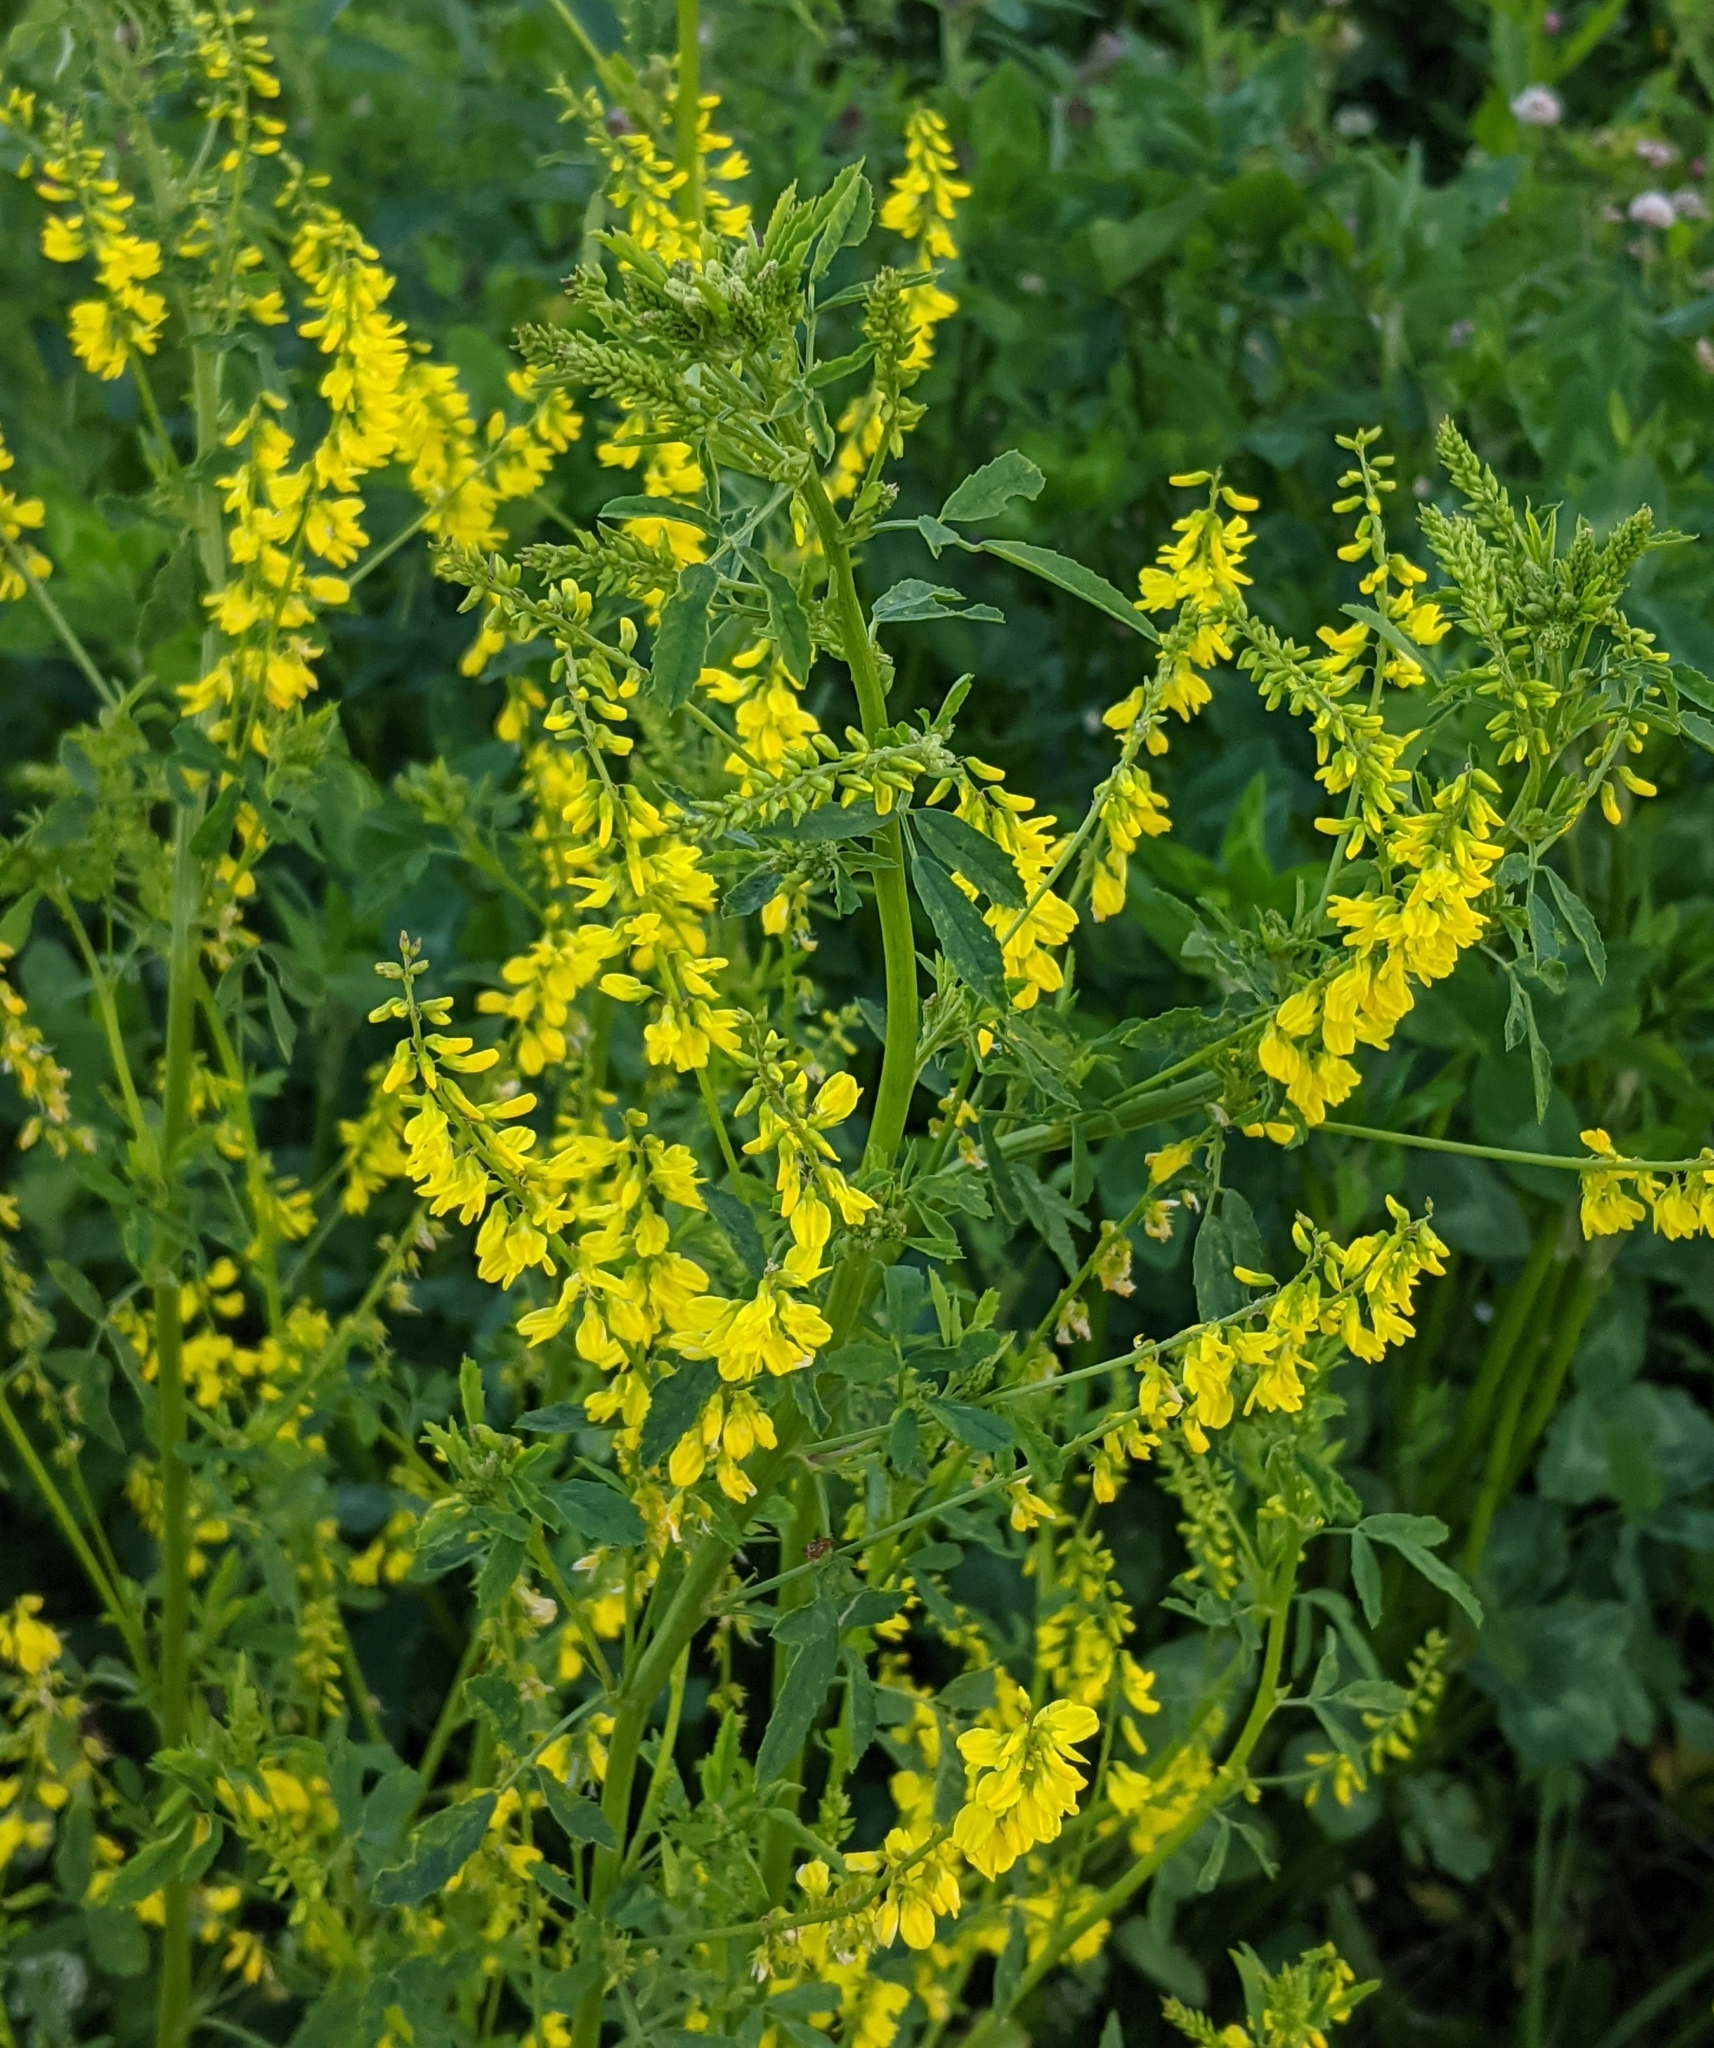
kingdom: Plantae
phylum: Tracheophyta
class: Magnoliopsida
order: Fabales
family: Fabaceae
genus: Melilotus
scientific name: Melilotus officinalis
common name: Sweetclover
